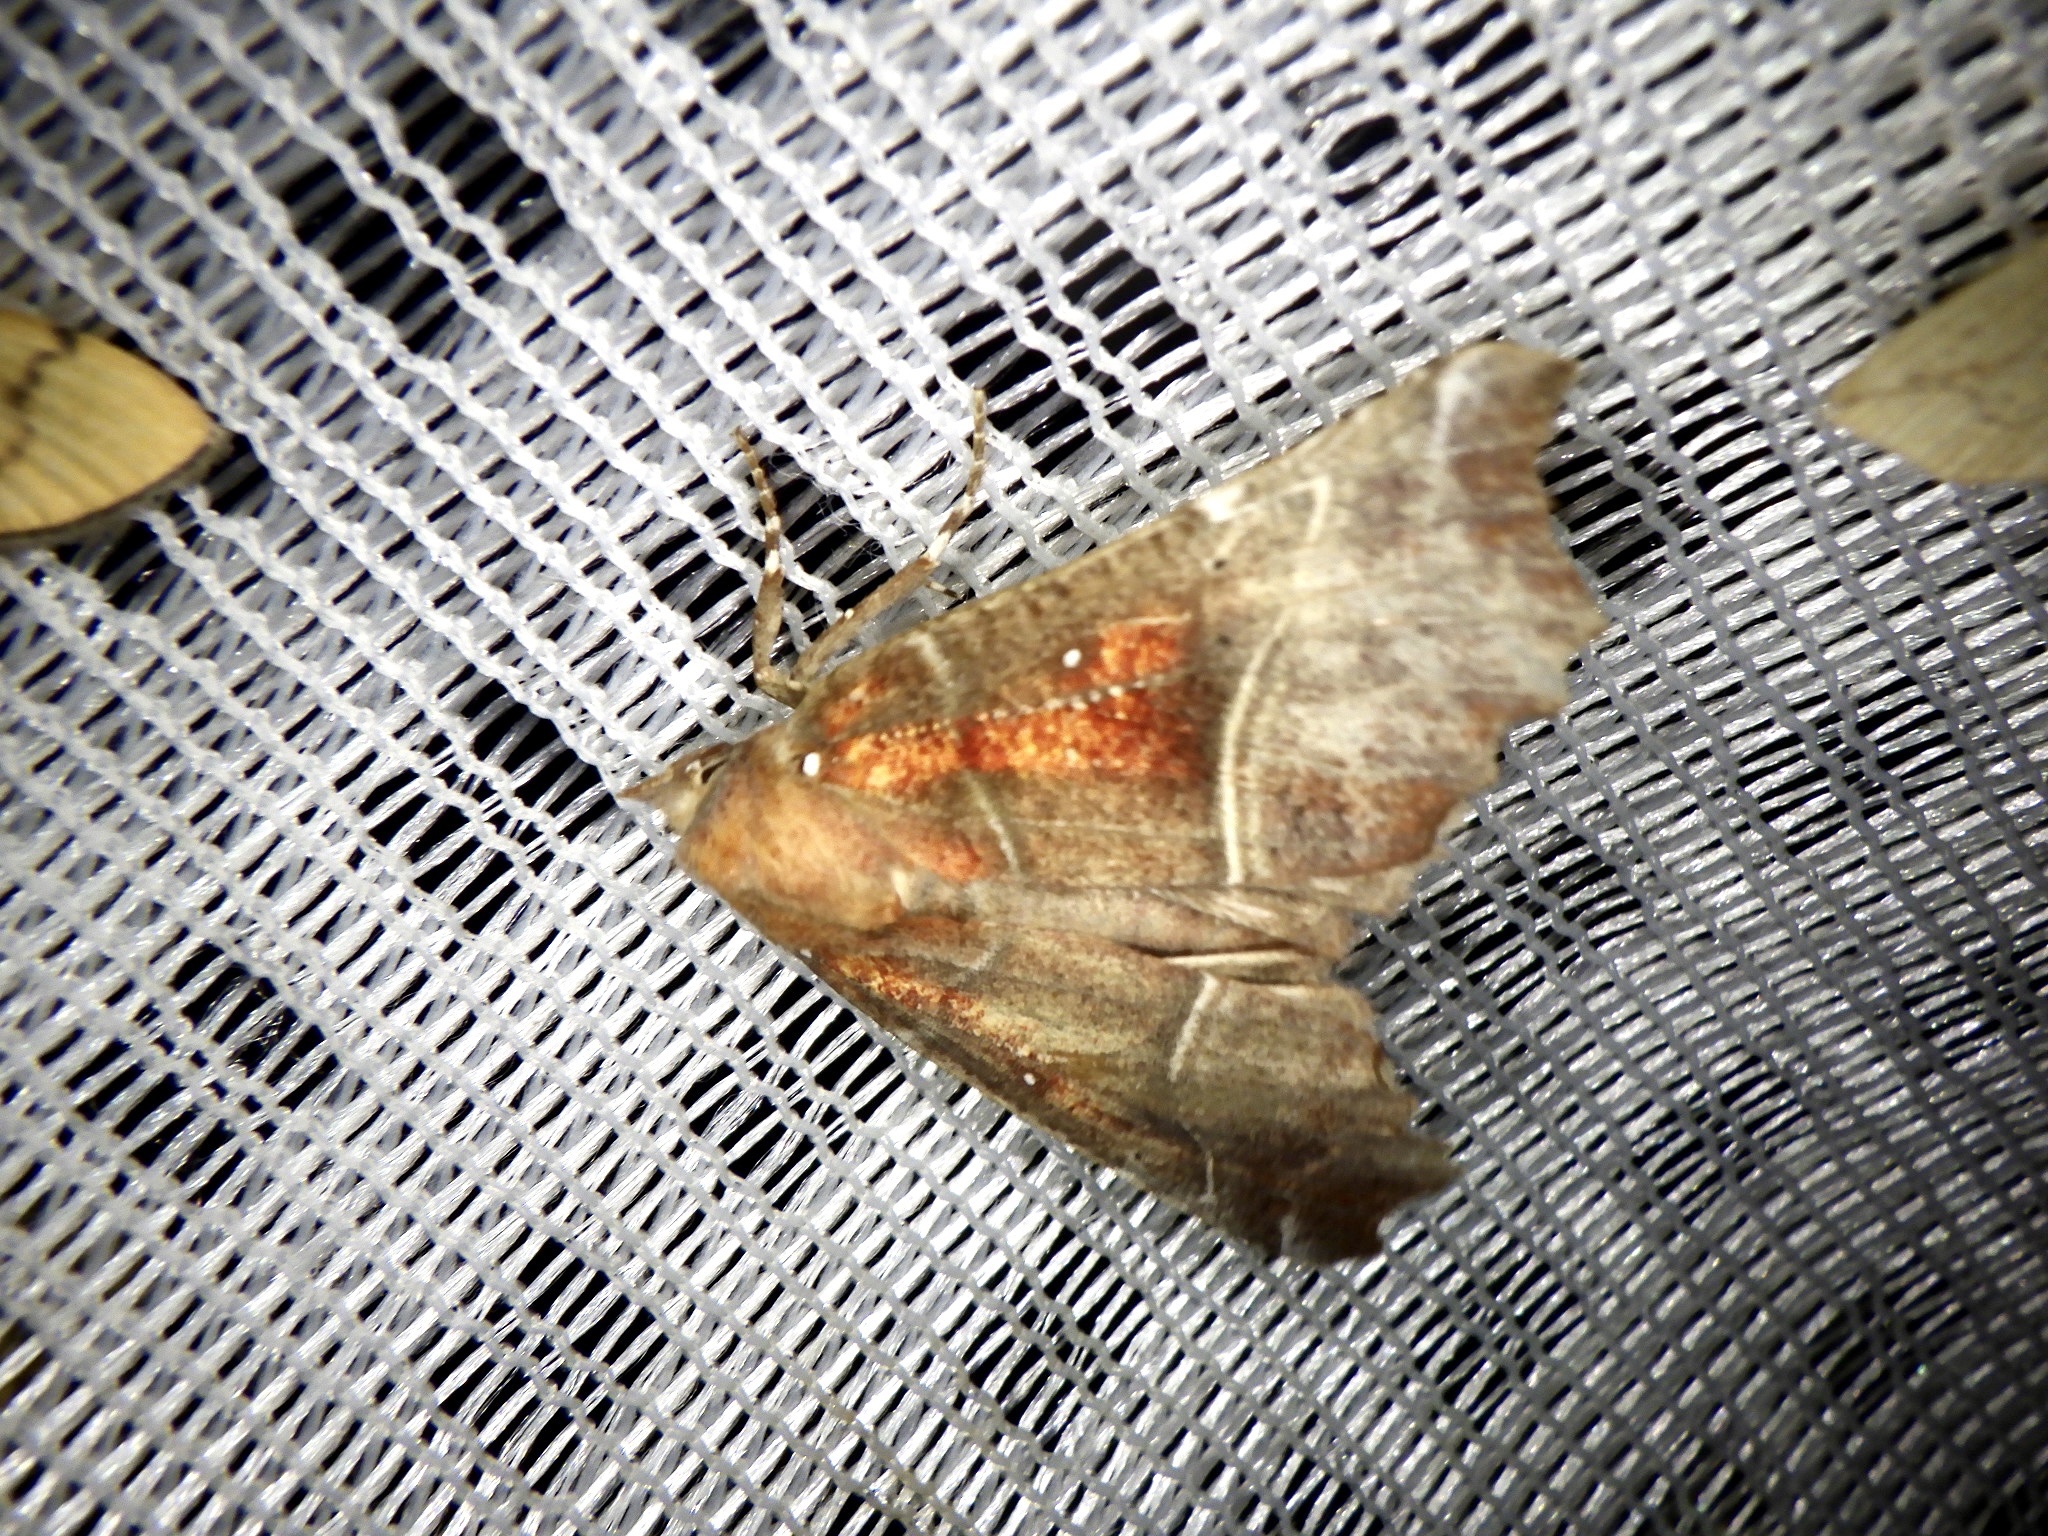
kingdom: Animalia
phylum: Arthropoda
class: Insecta
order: Lepidoptera
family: Erebidae
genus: Scoliopteryx
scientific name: Scoliopteryx libatrix
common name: Herald
